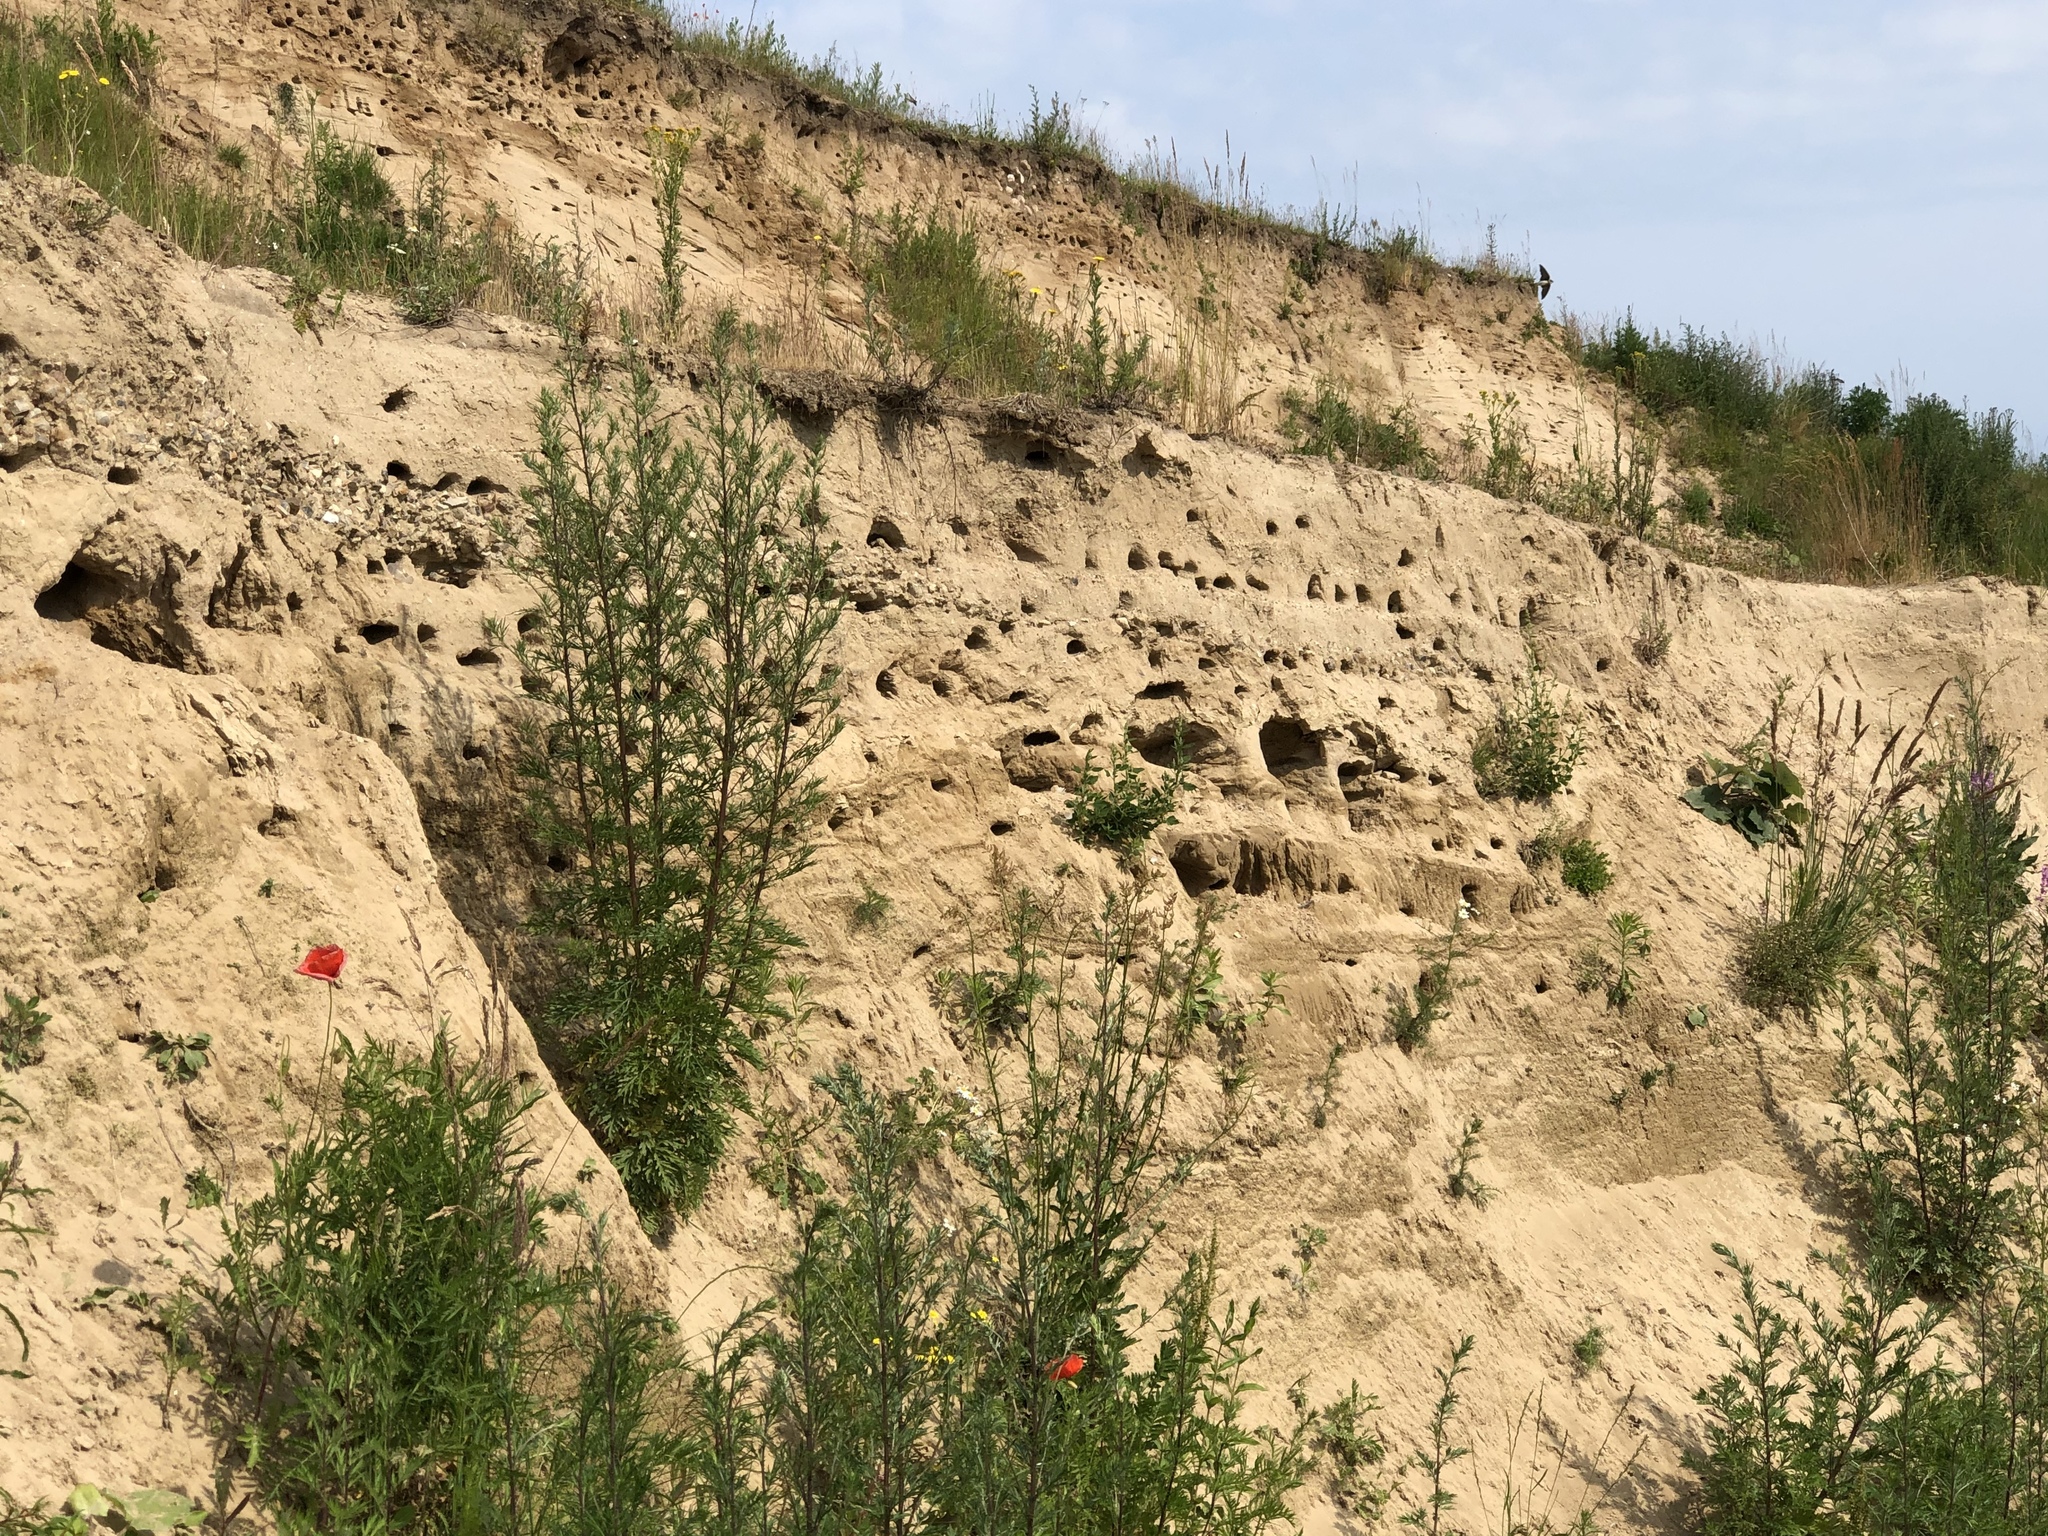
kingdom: Animalia
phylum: Chordata
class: Aves
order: Passeriformes
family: Hirundinidae
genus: Riparia
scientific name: Riparia riparia
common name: Sand martin
